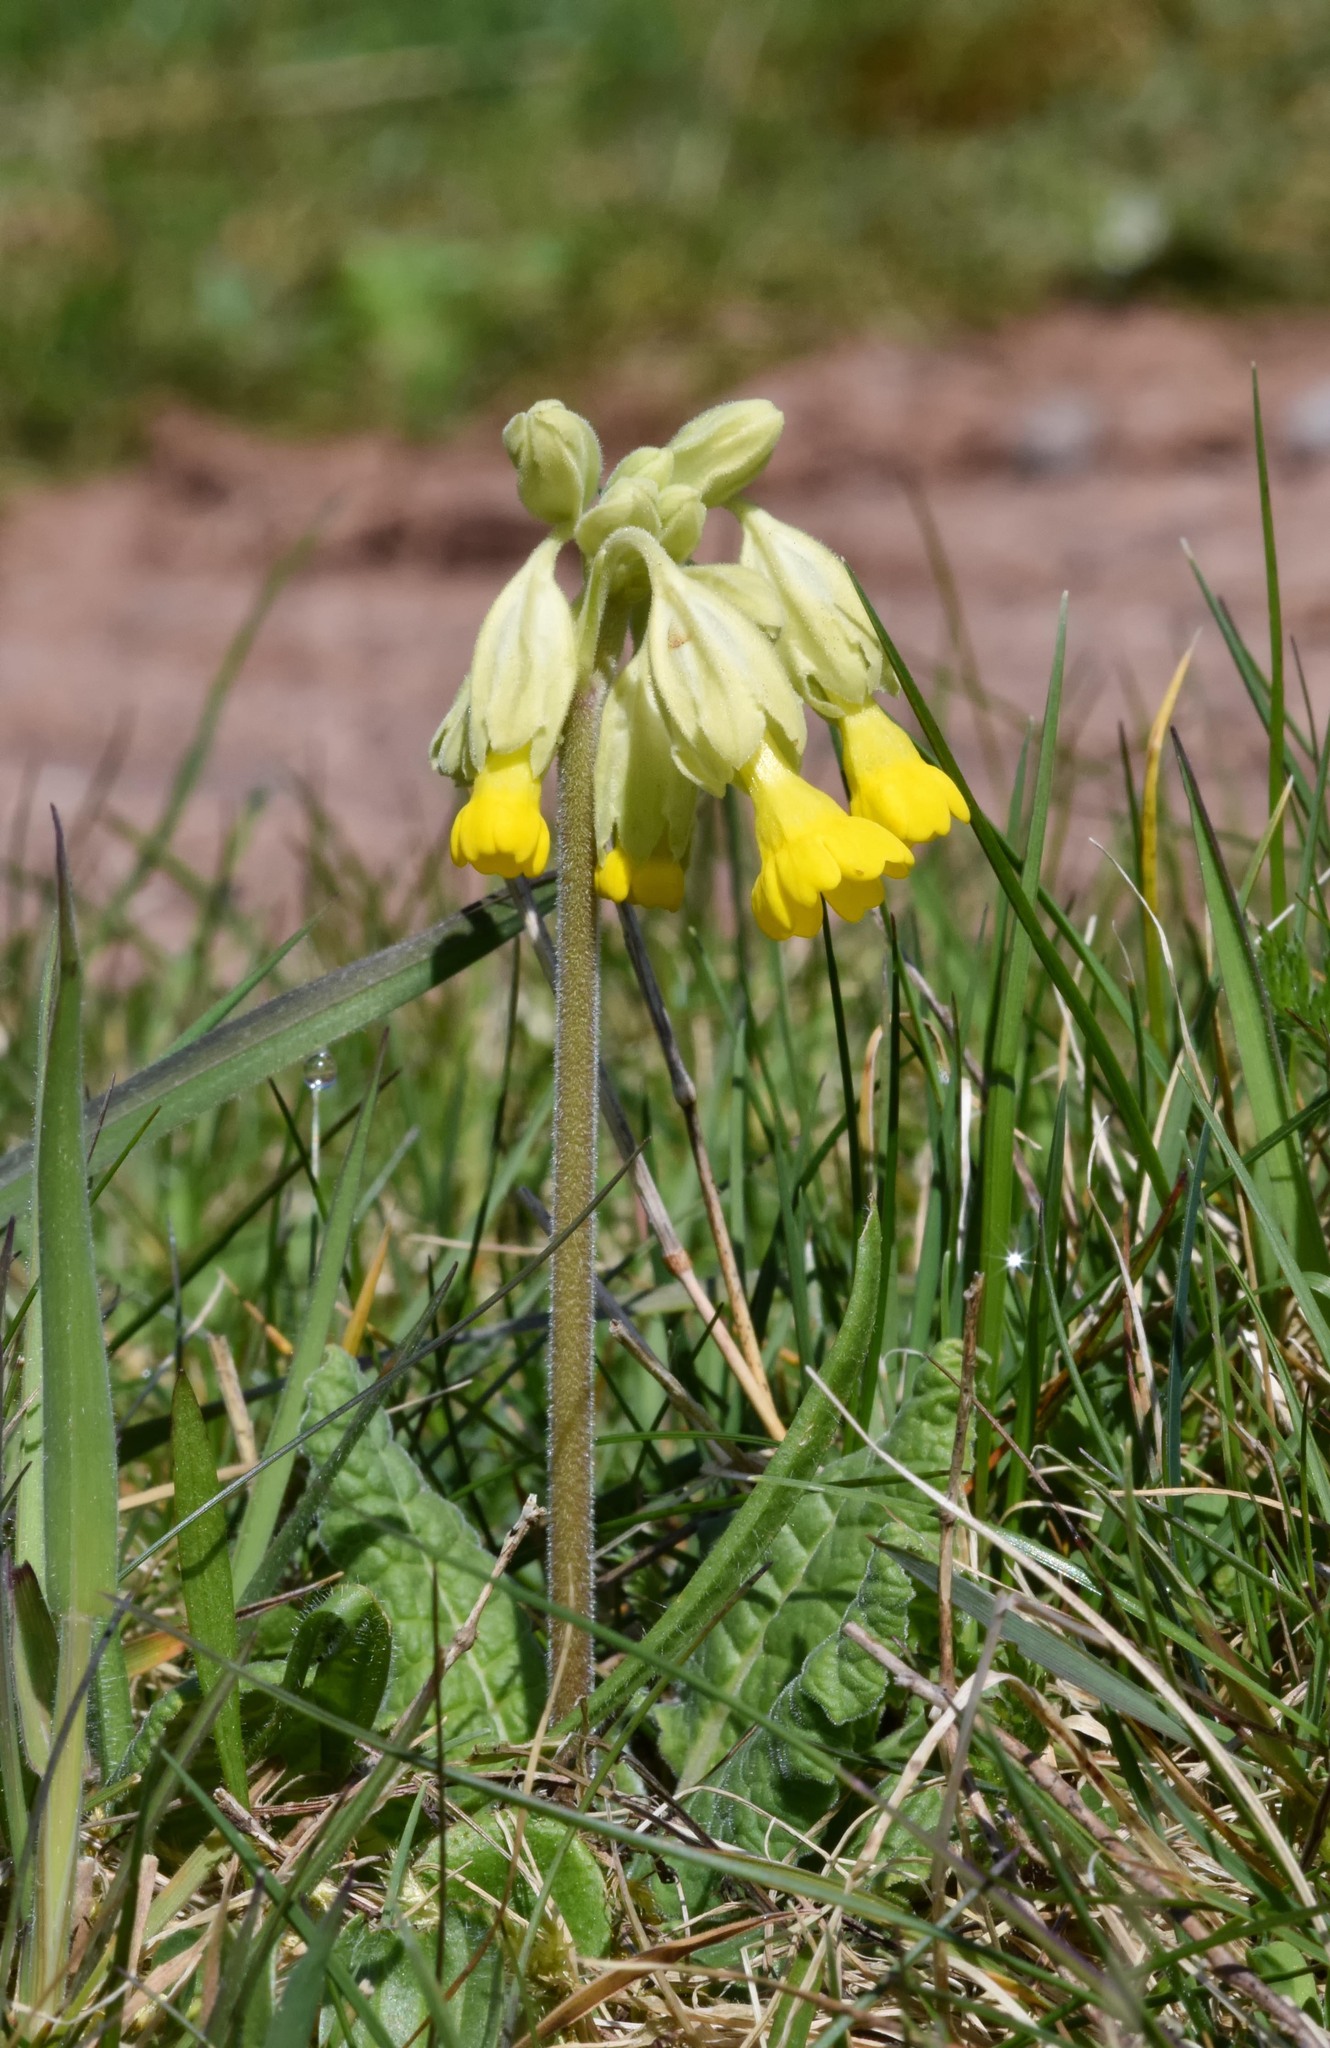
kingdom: Plantae
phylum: Tracheophyta
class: Magnoliopsida
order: Ericales
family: Primulaceae
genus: Primula
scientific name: Primula veris
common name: Cowslip
